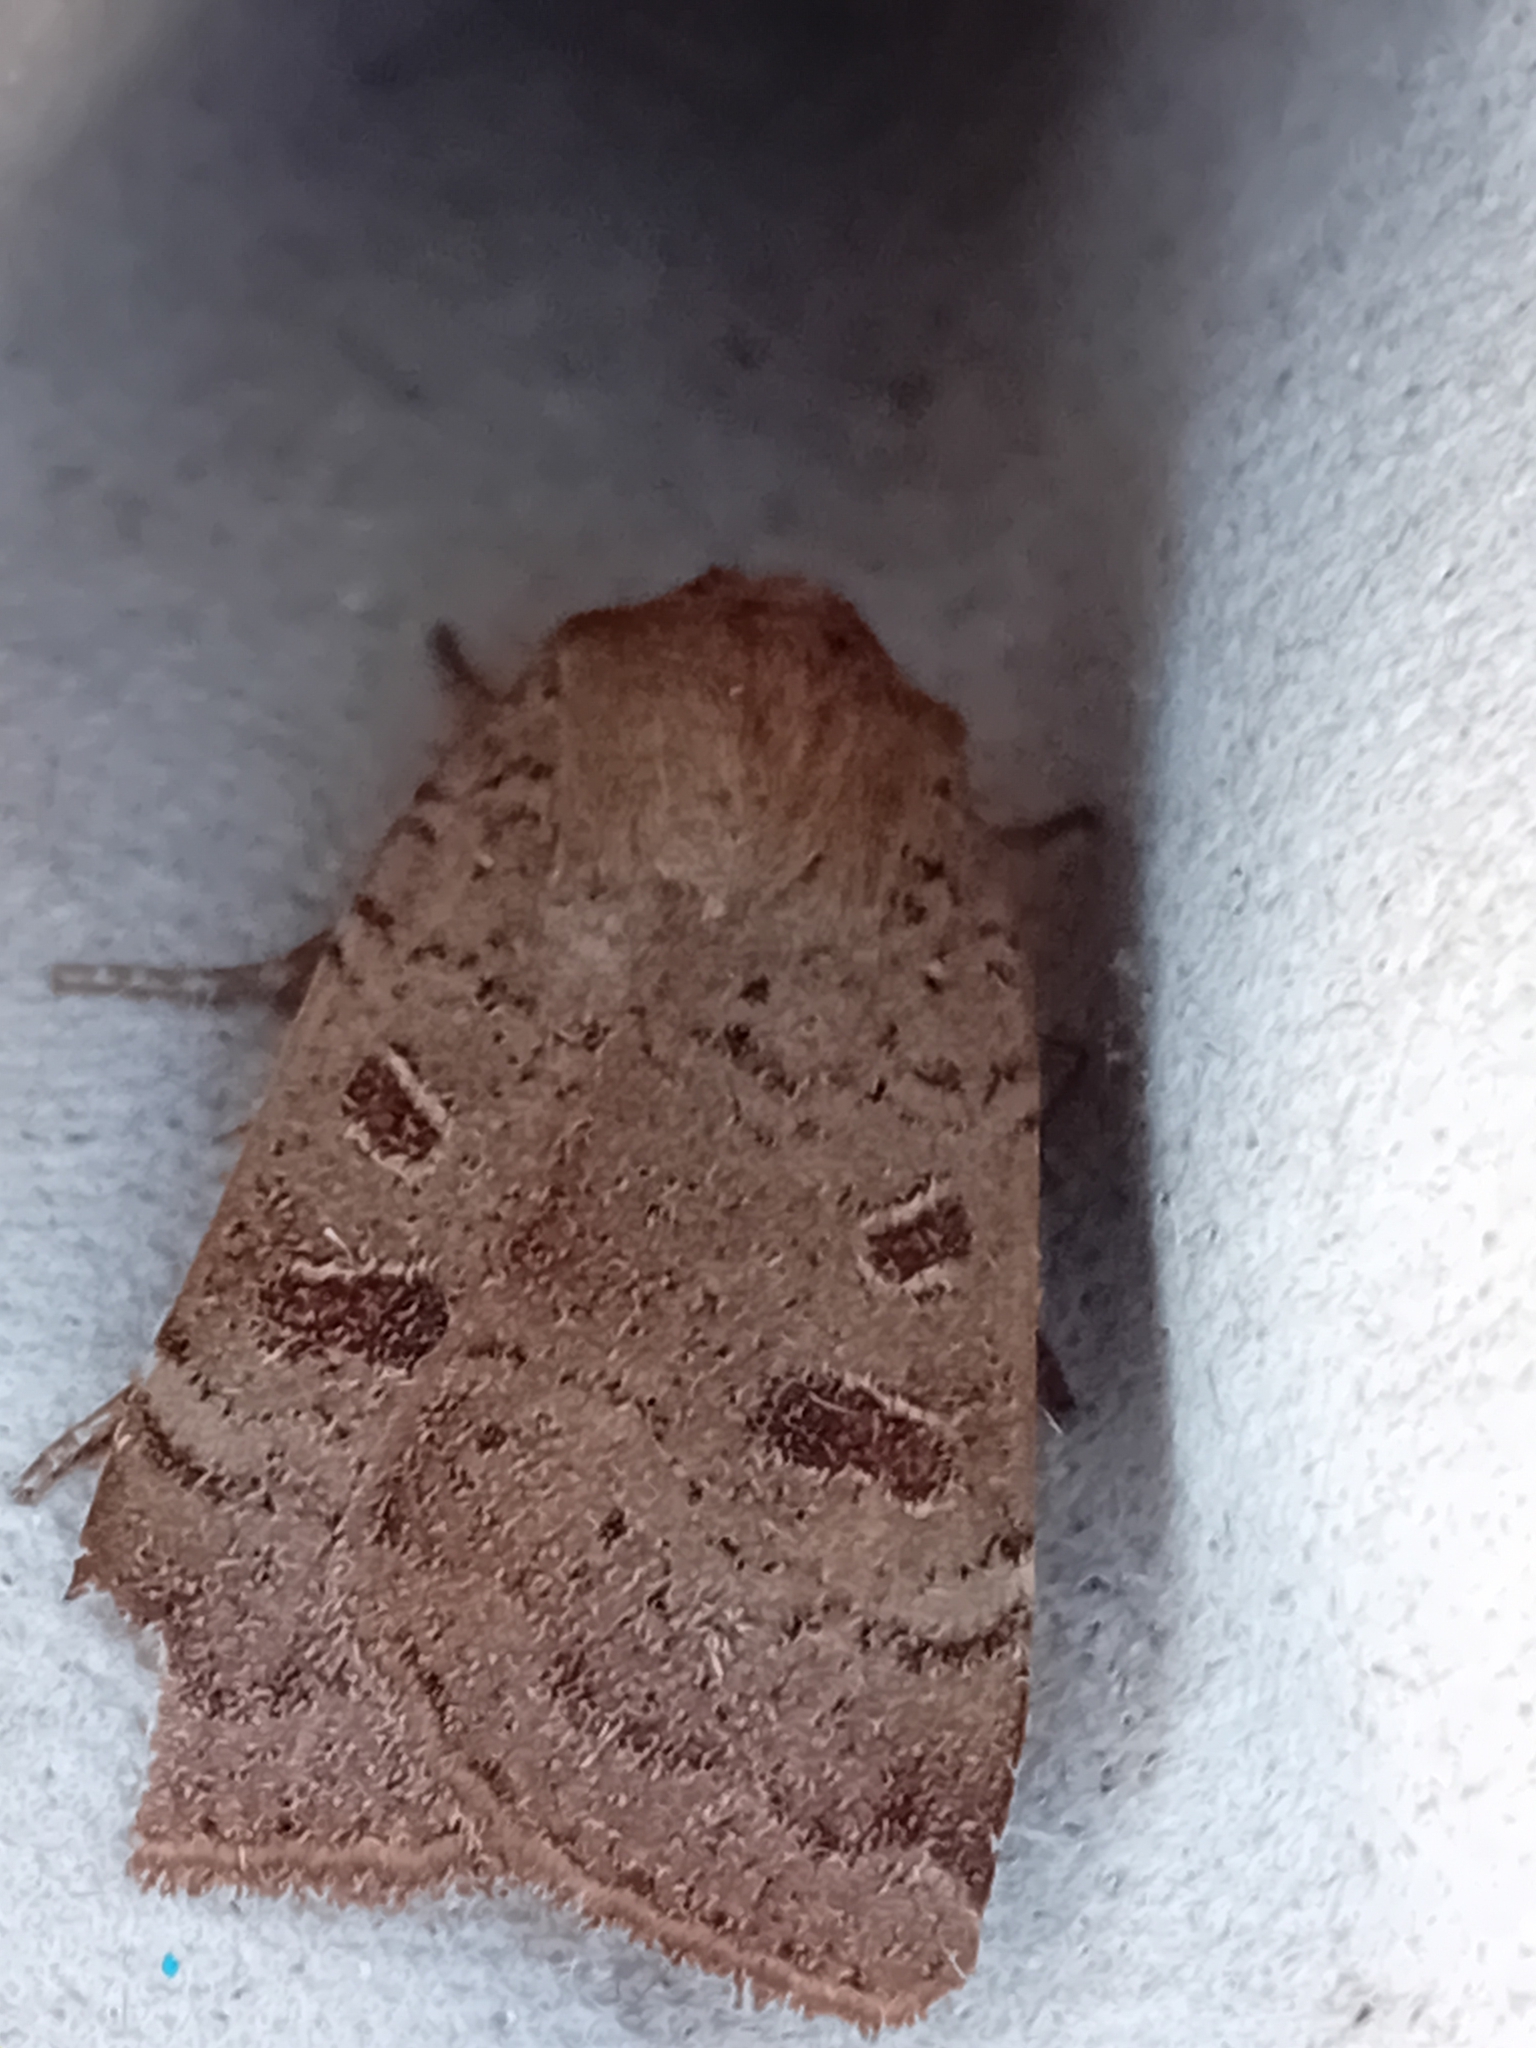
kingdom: Animalia
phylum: Arthropoda
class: Insecta
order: Lepidoptera
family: Noctuidae
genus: Noctua
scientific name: Noctua comes
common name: Lesser yellow underwing
